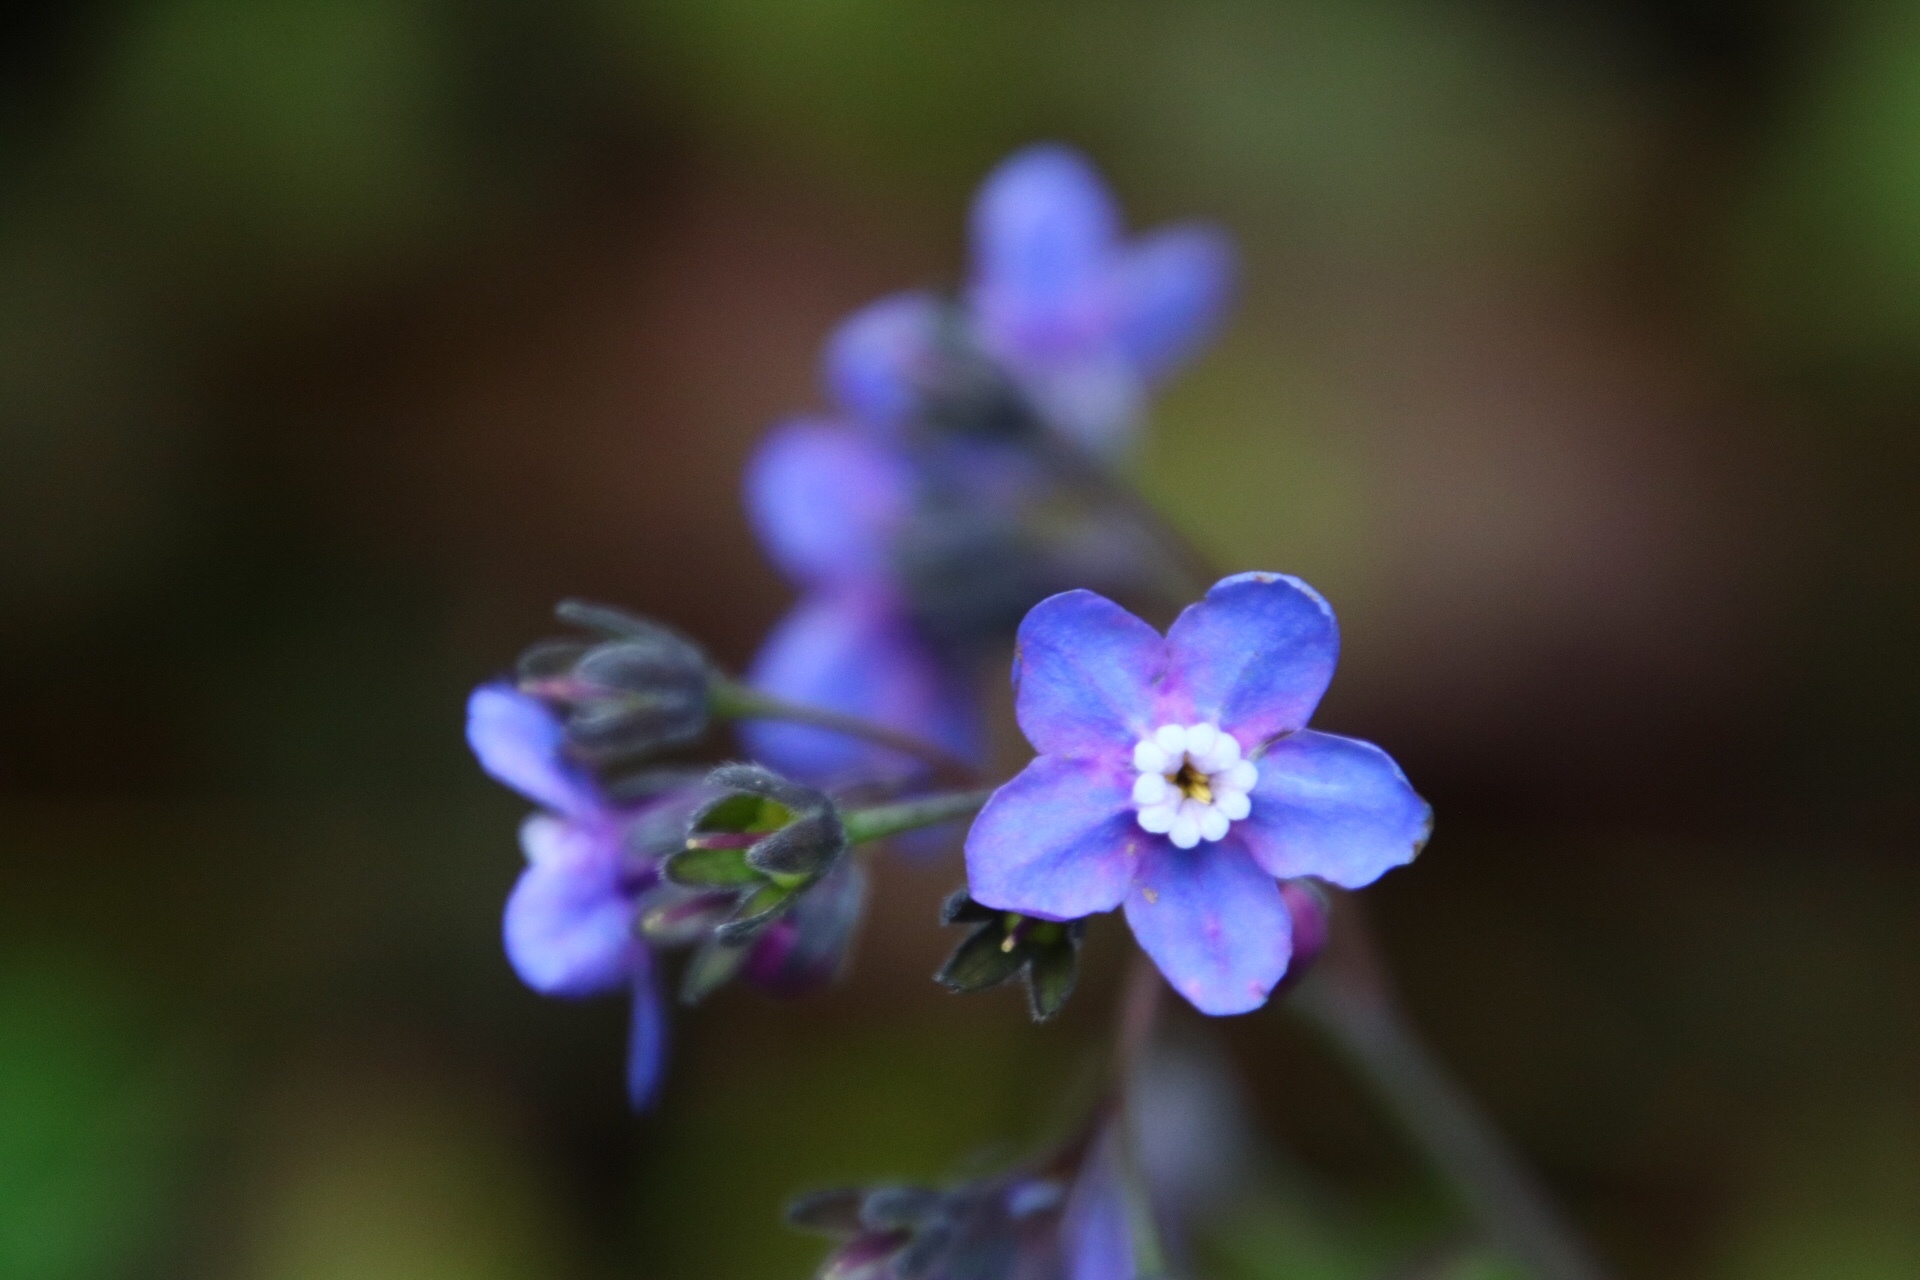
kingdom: Plantae
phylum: Tracheophyta
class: Magnoliopsida
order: Boraginales
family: Boraginaceae
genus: Adelinia
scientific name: Adelinia grande
